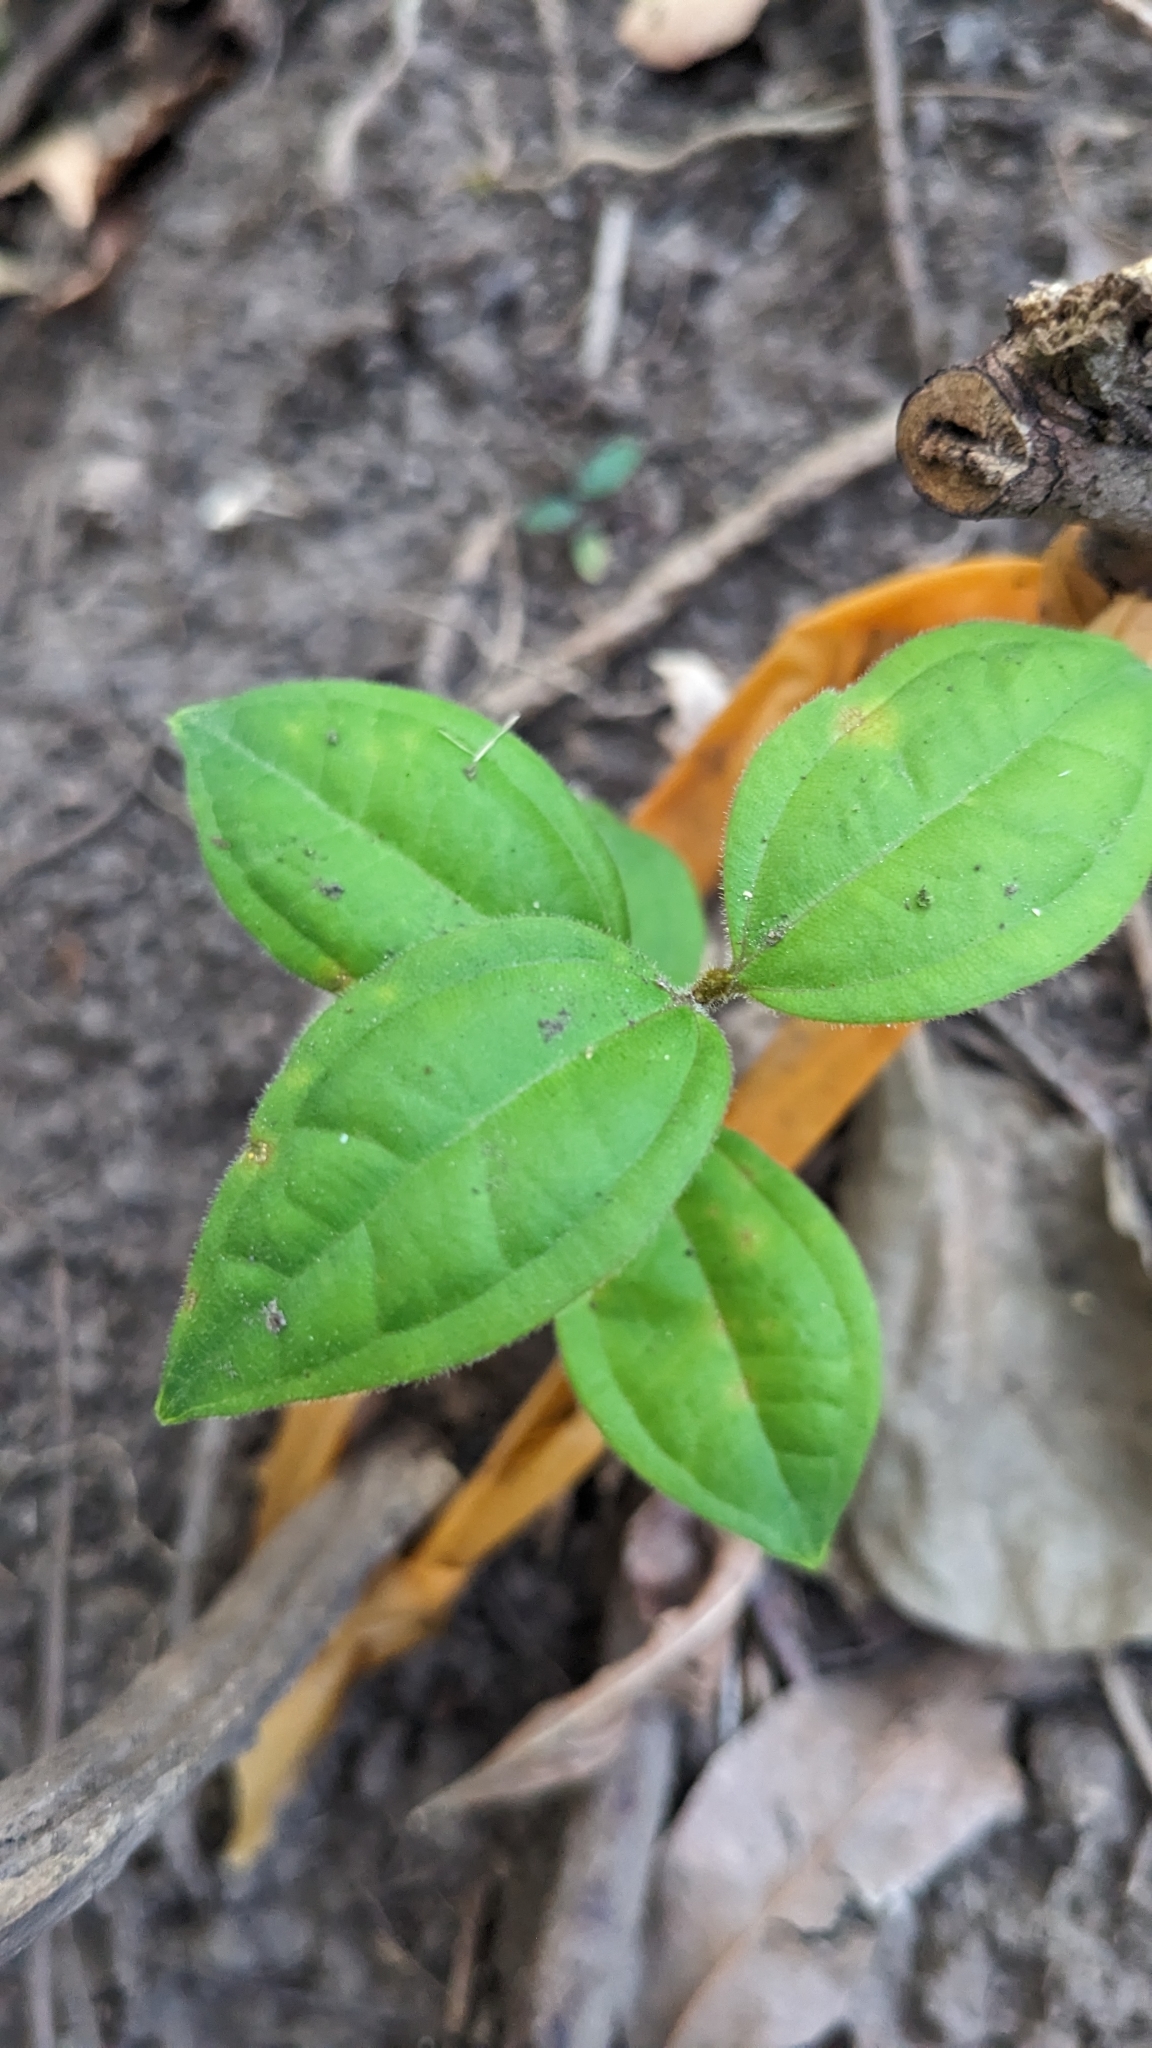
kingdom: Fungi
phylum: Basidiomycota
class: Pucciniomycetes
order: Pucciniales
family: Sphaerophragmiaceae
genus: Austropuccinia
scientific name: Austropuccinia psidii
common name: Myrtle rust
